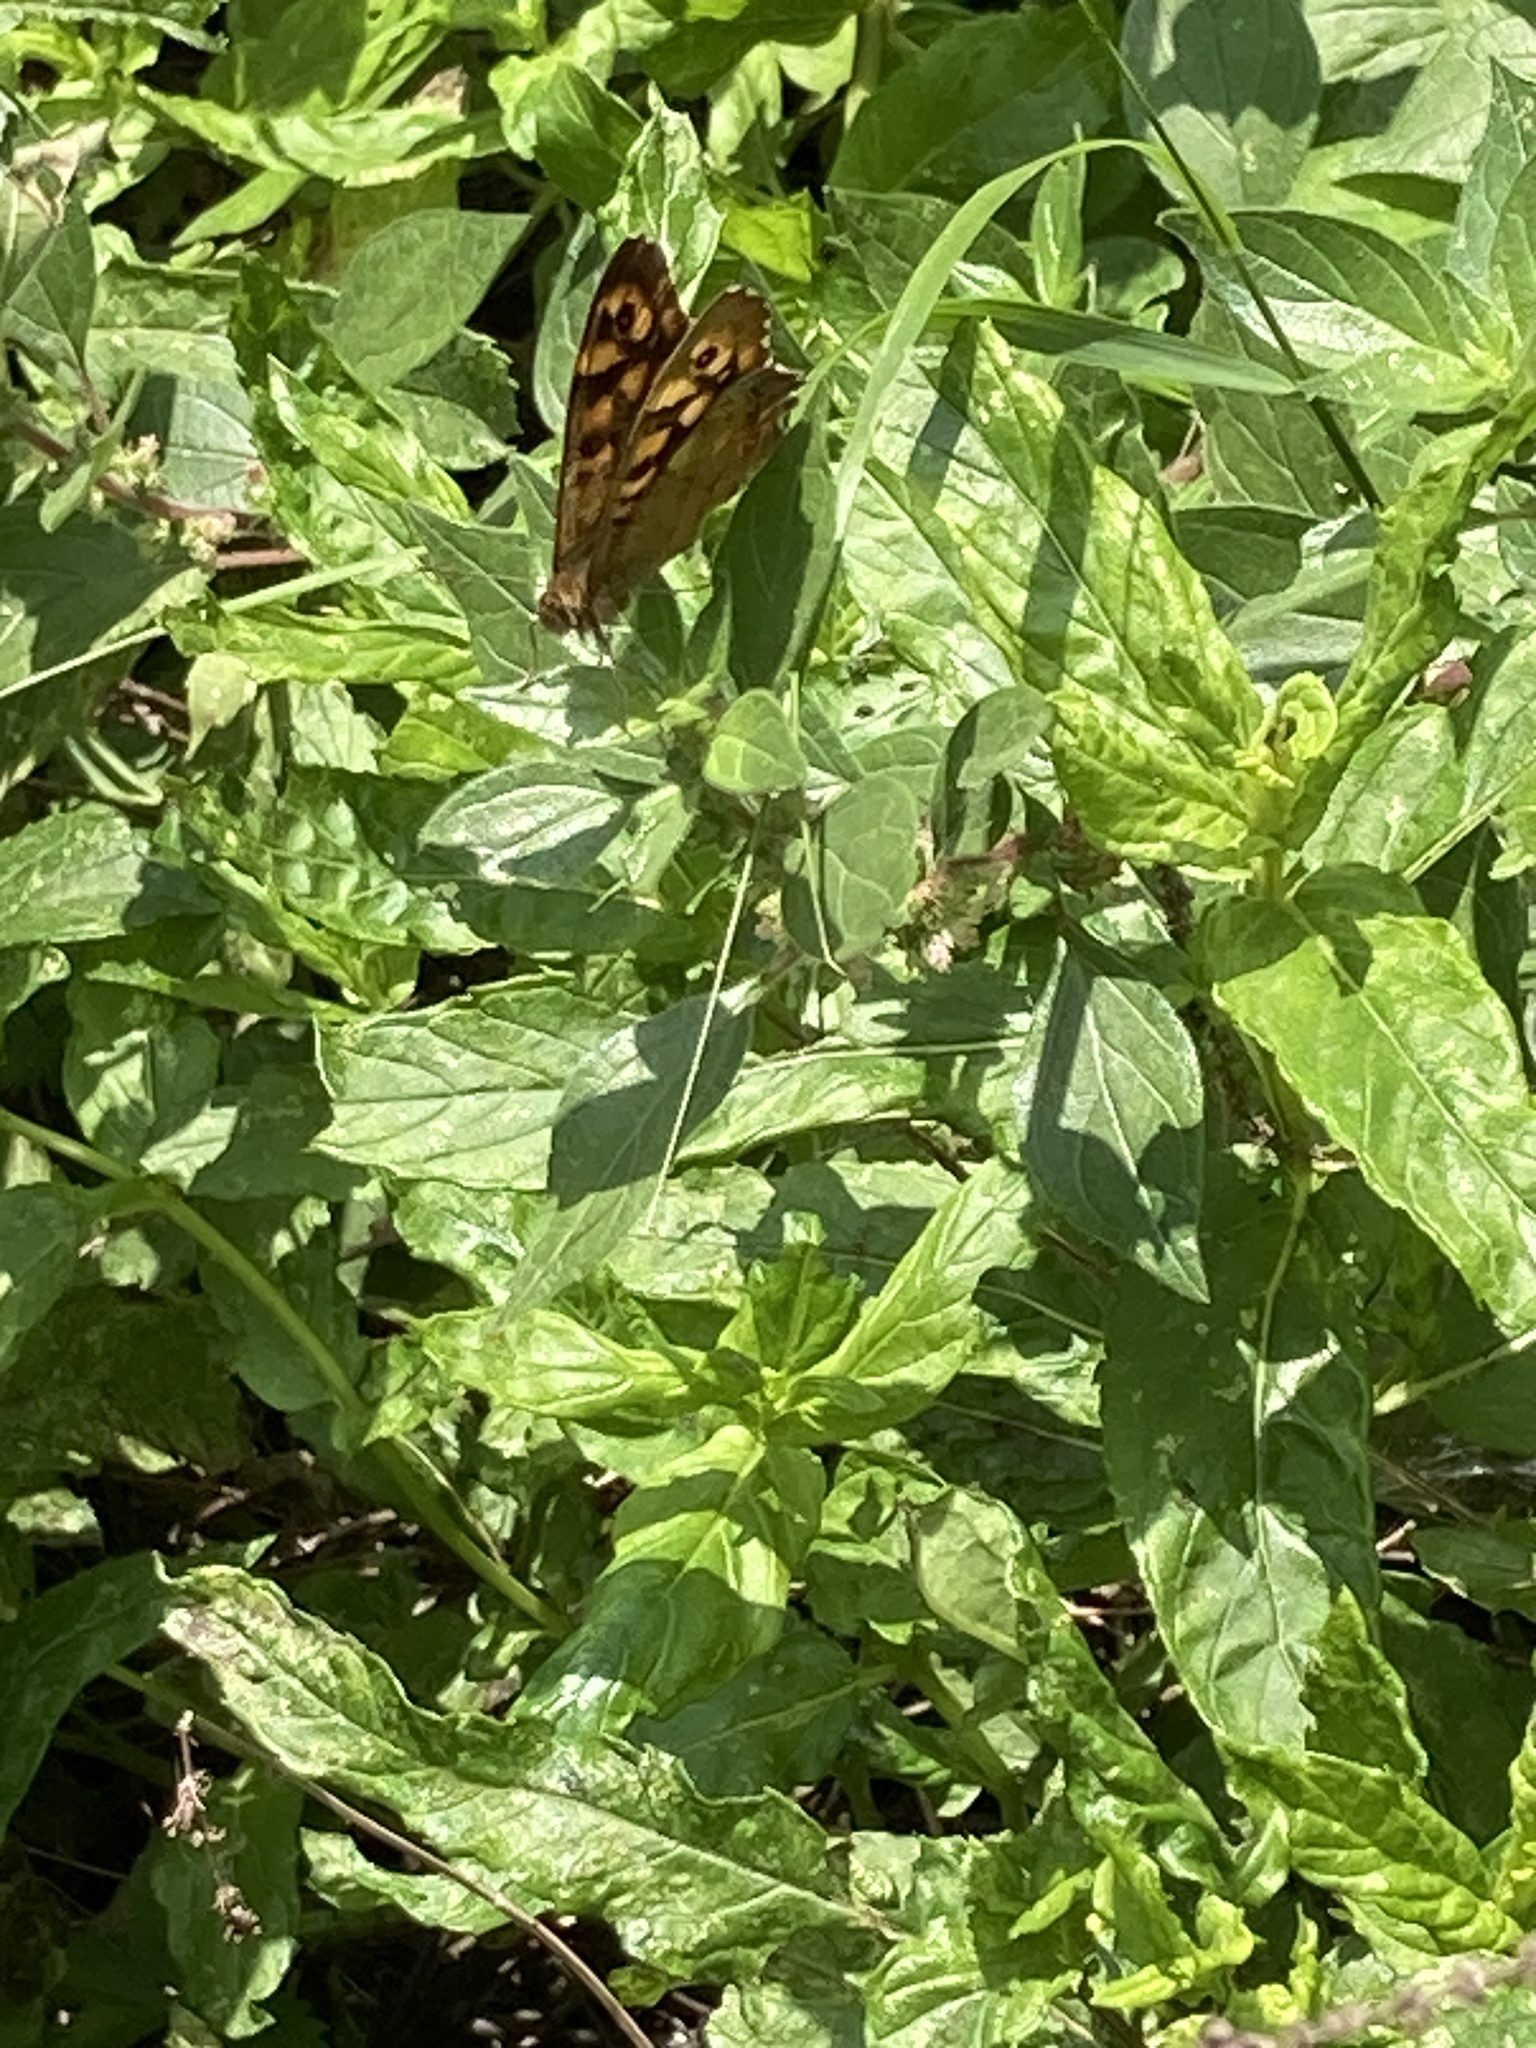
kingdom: Animalia
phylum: Arthropoda
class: Insecta
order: Lepidoptera
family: Nymphalidae
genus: Pararge
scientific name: Pararge aegeria
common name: Speckled wood
